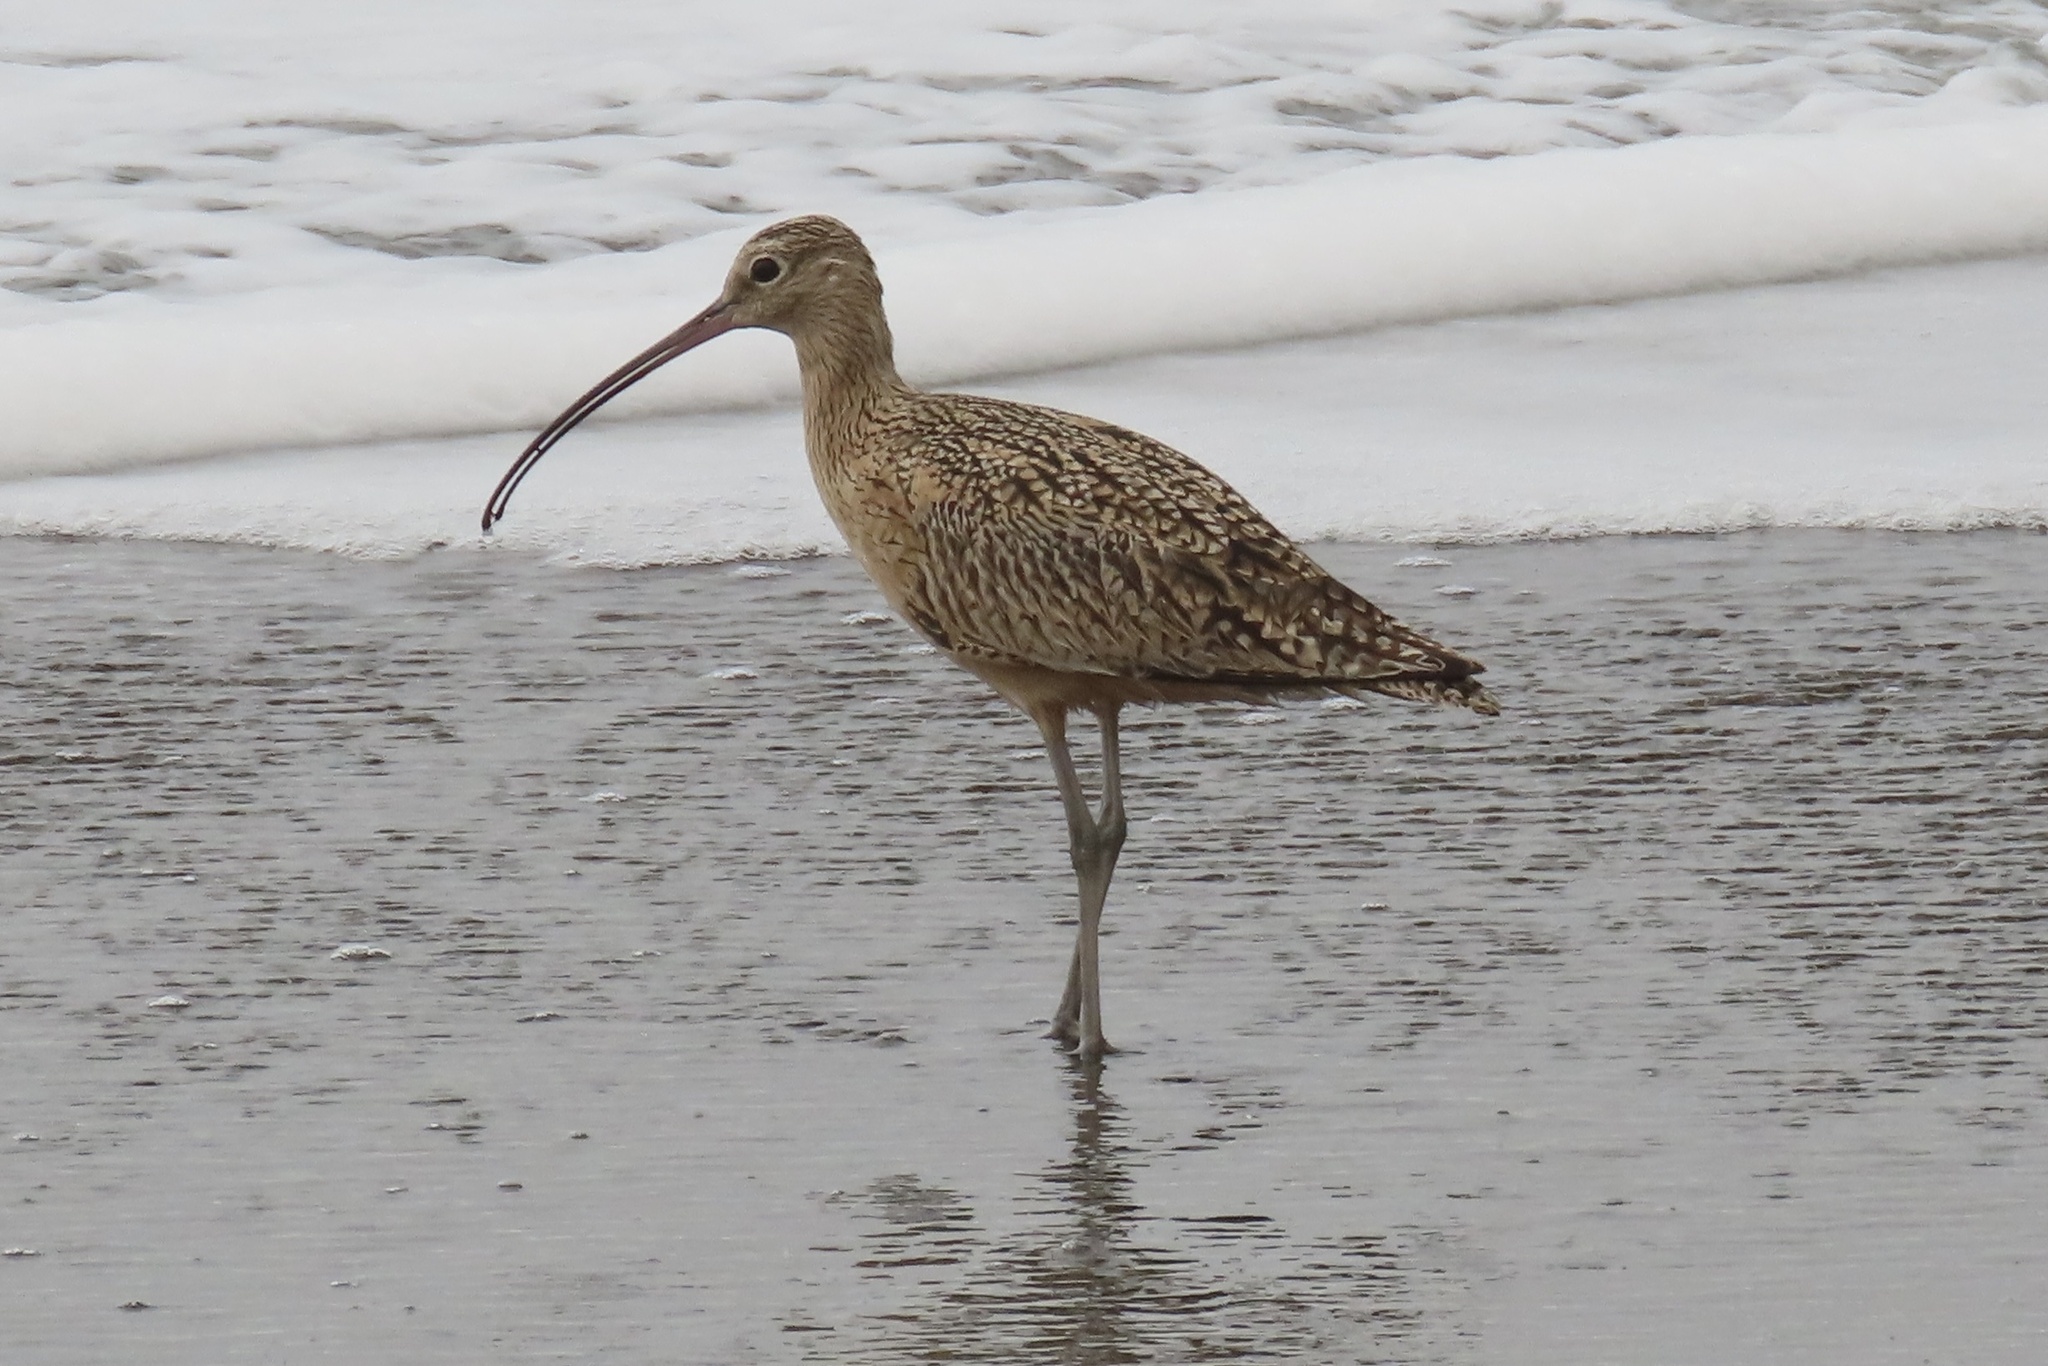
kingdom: Animalia
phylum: Chordata
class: Aves
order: Charadriiformes
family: Scolopacidae
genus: Numenius
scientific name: Numenius americanus
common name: Long-billed curlew
